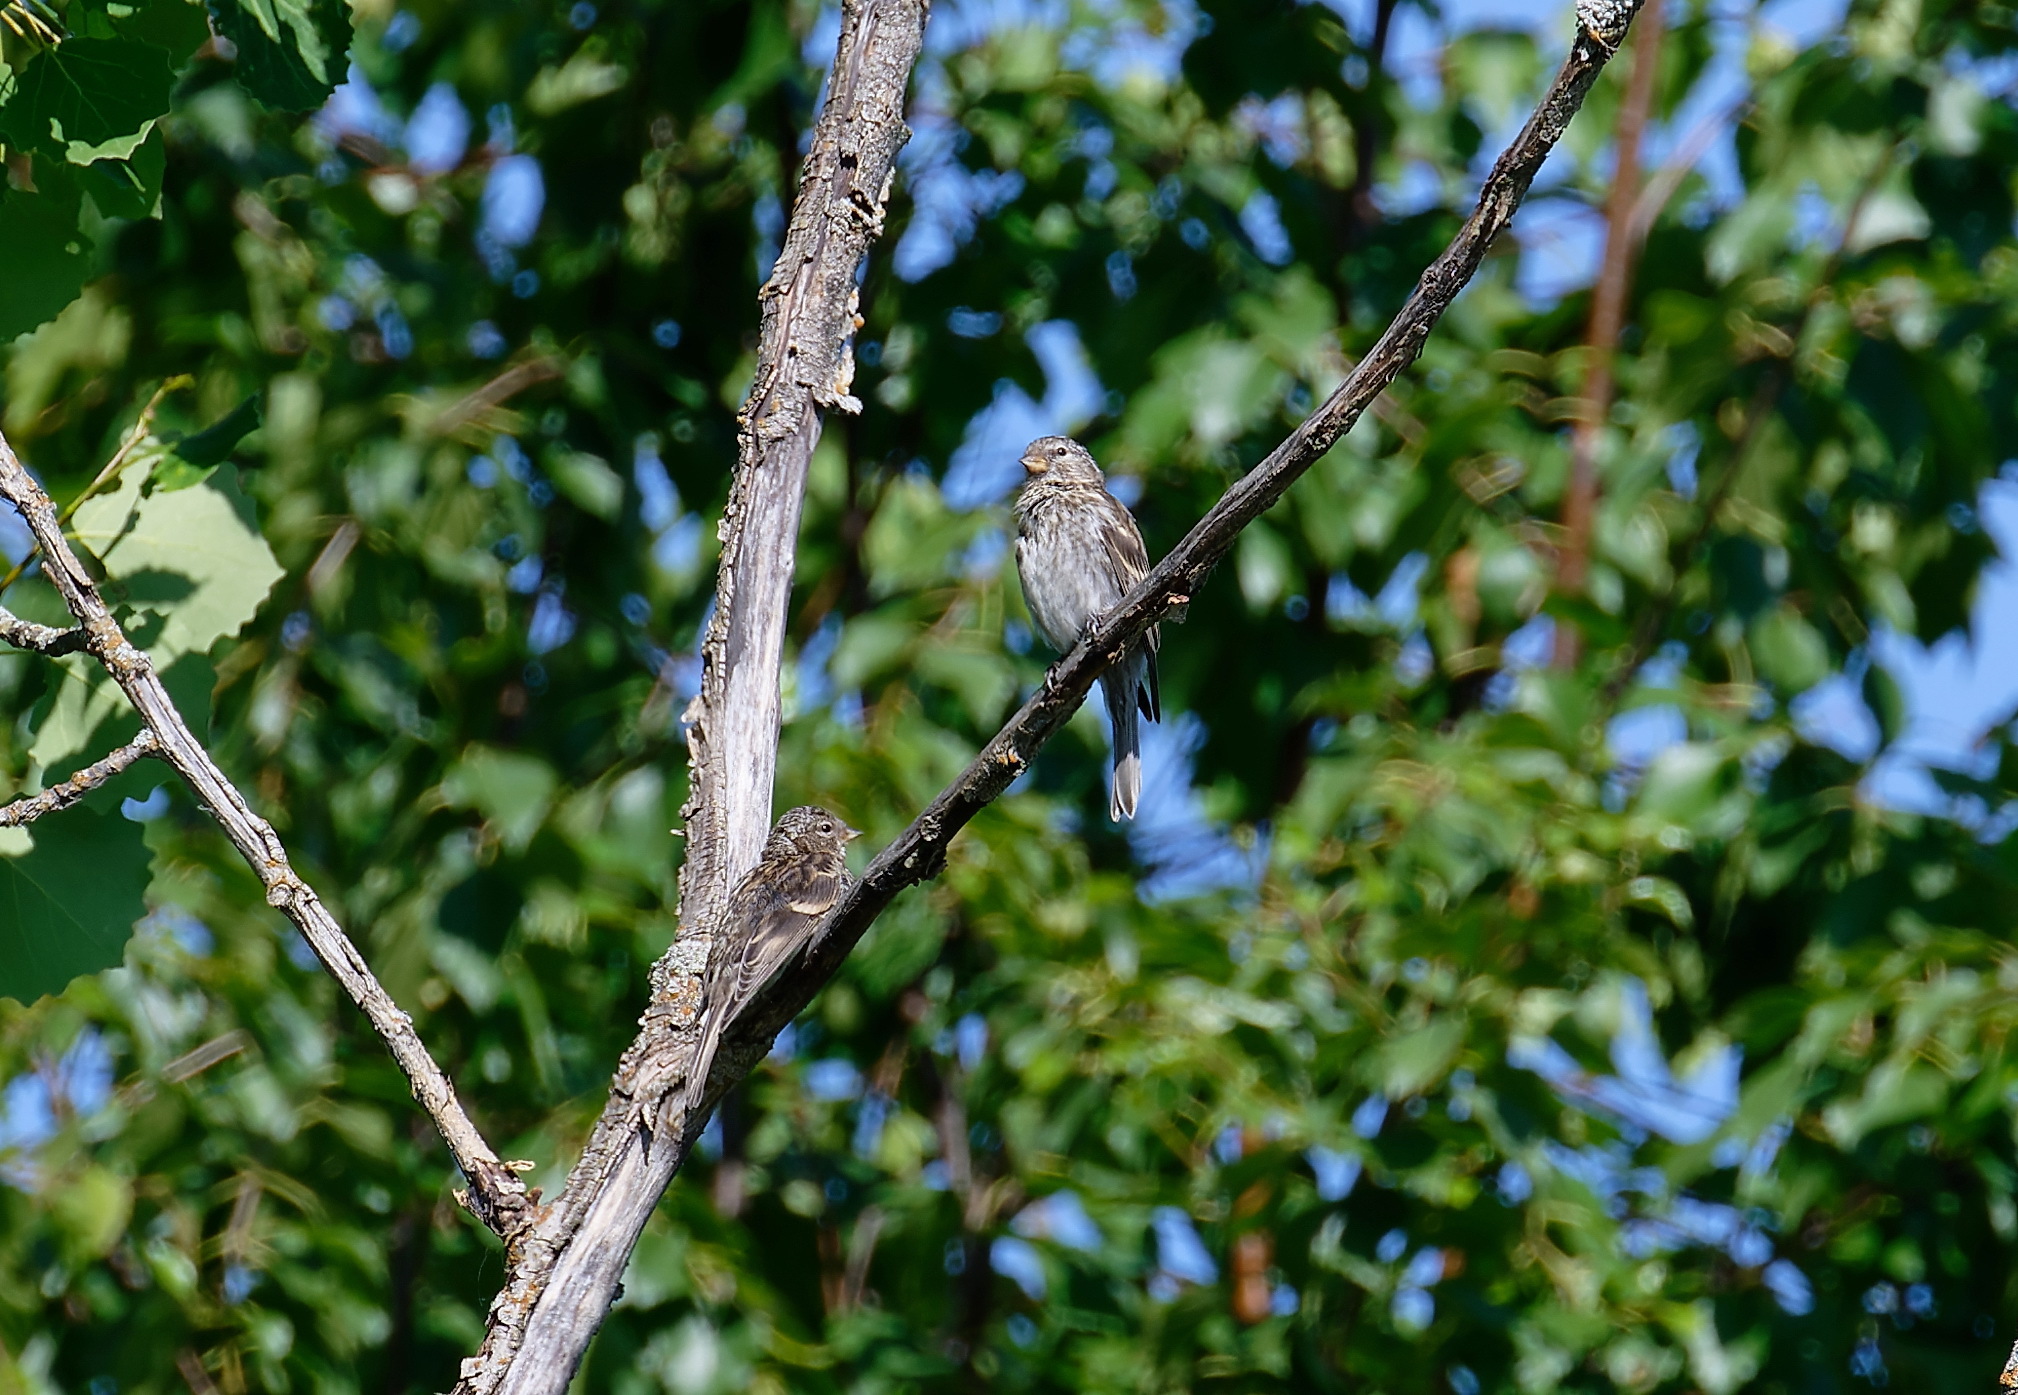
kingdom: Animalia
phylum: Chordata
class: Aves
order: Passeriformes
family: Fringillidae
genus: Acanthis
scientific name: Acanthis flammea
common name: Common redpoll
